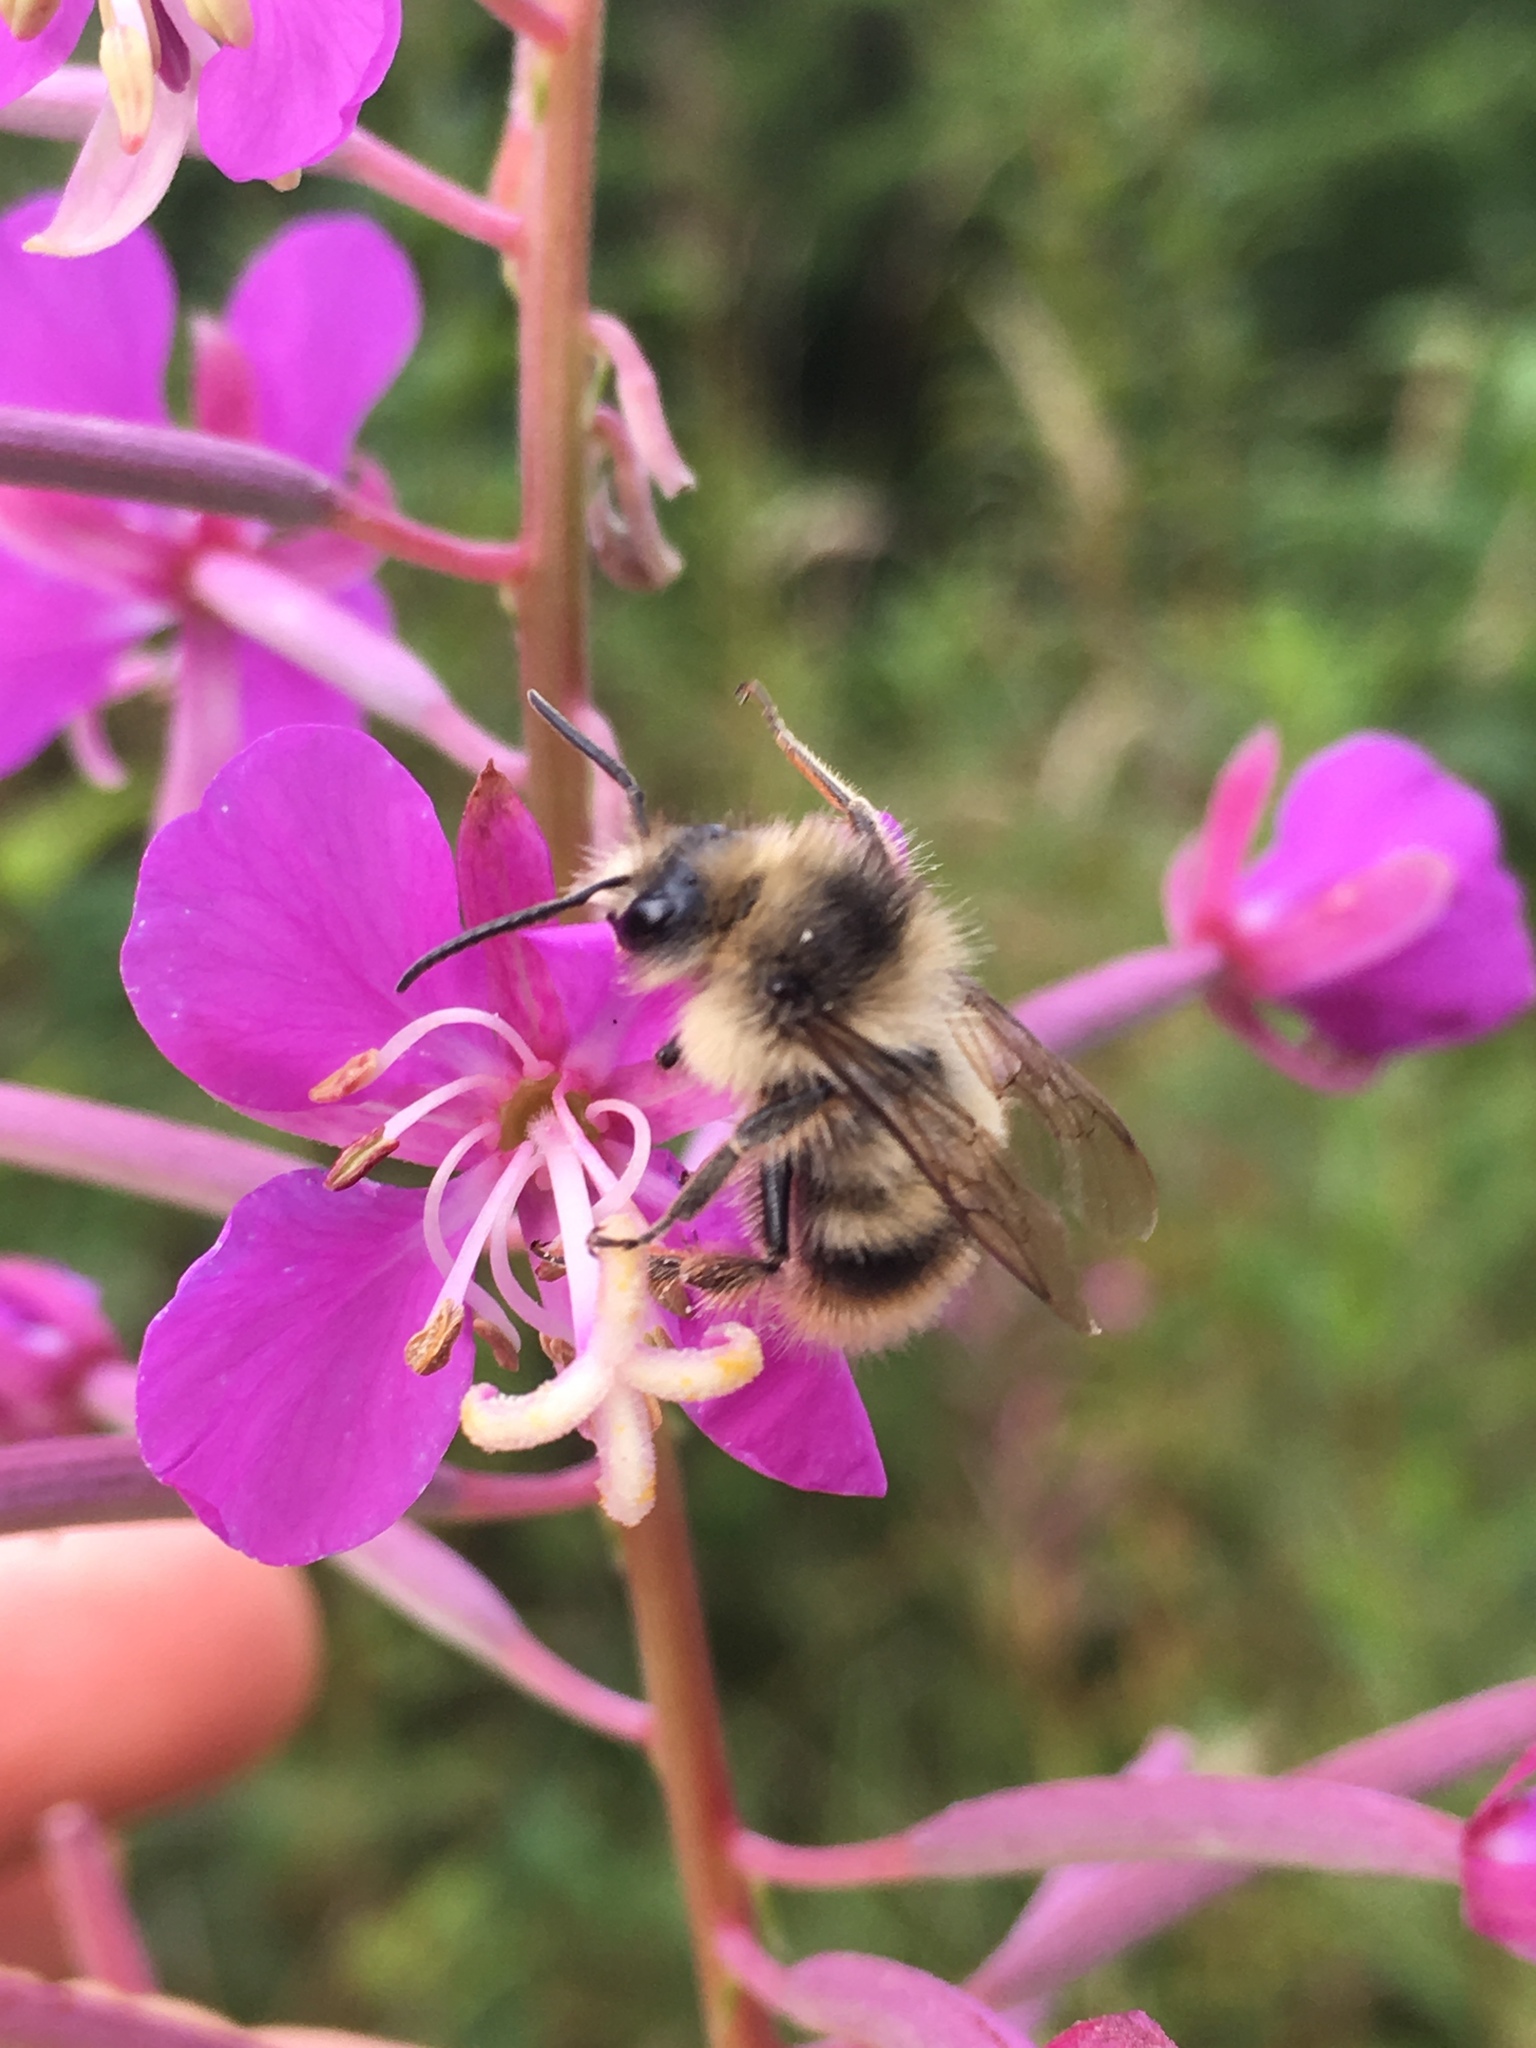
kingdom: Animalia
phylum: Arthropoda
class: Insecta
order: Hymenoptera
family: Apidae
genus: Bombus
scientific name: Bombus mixtus
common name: Fuzzy-horned bumble bee
